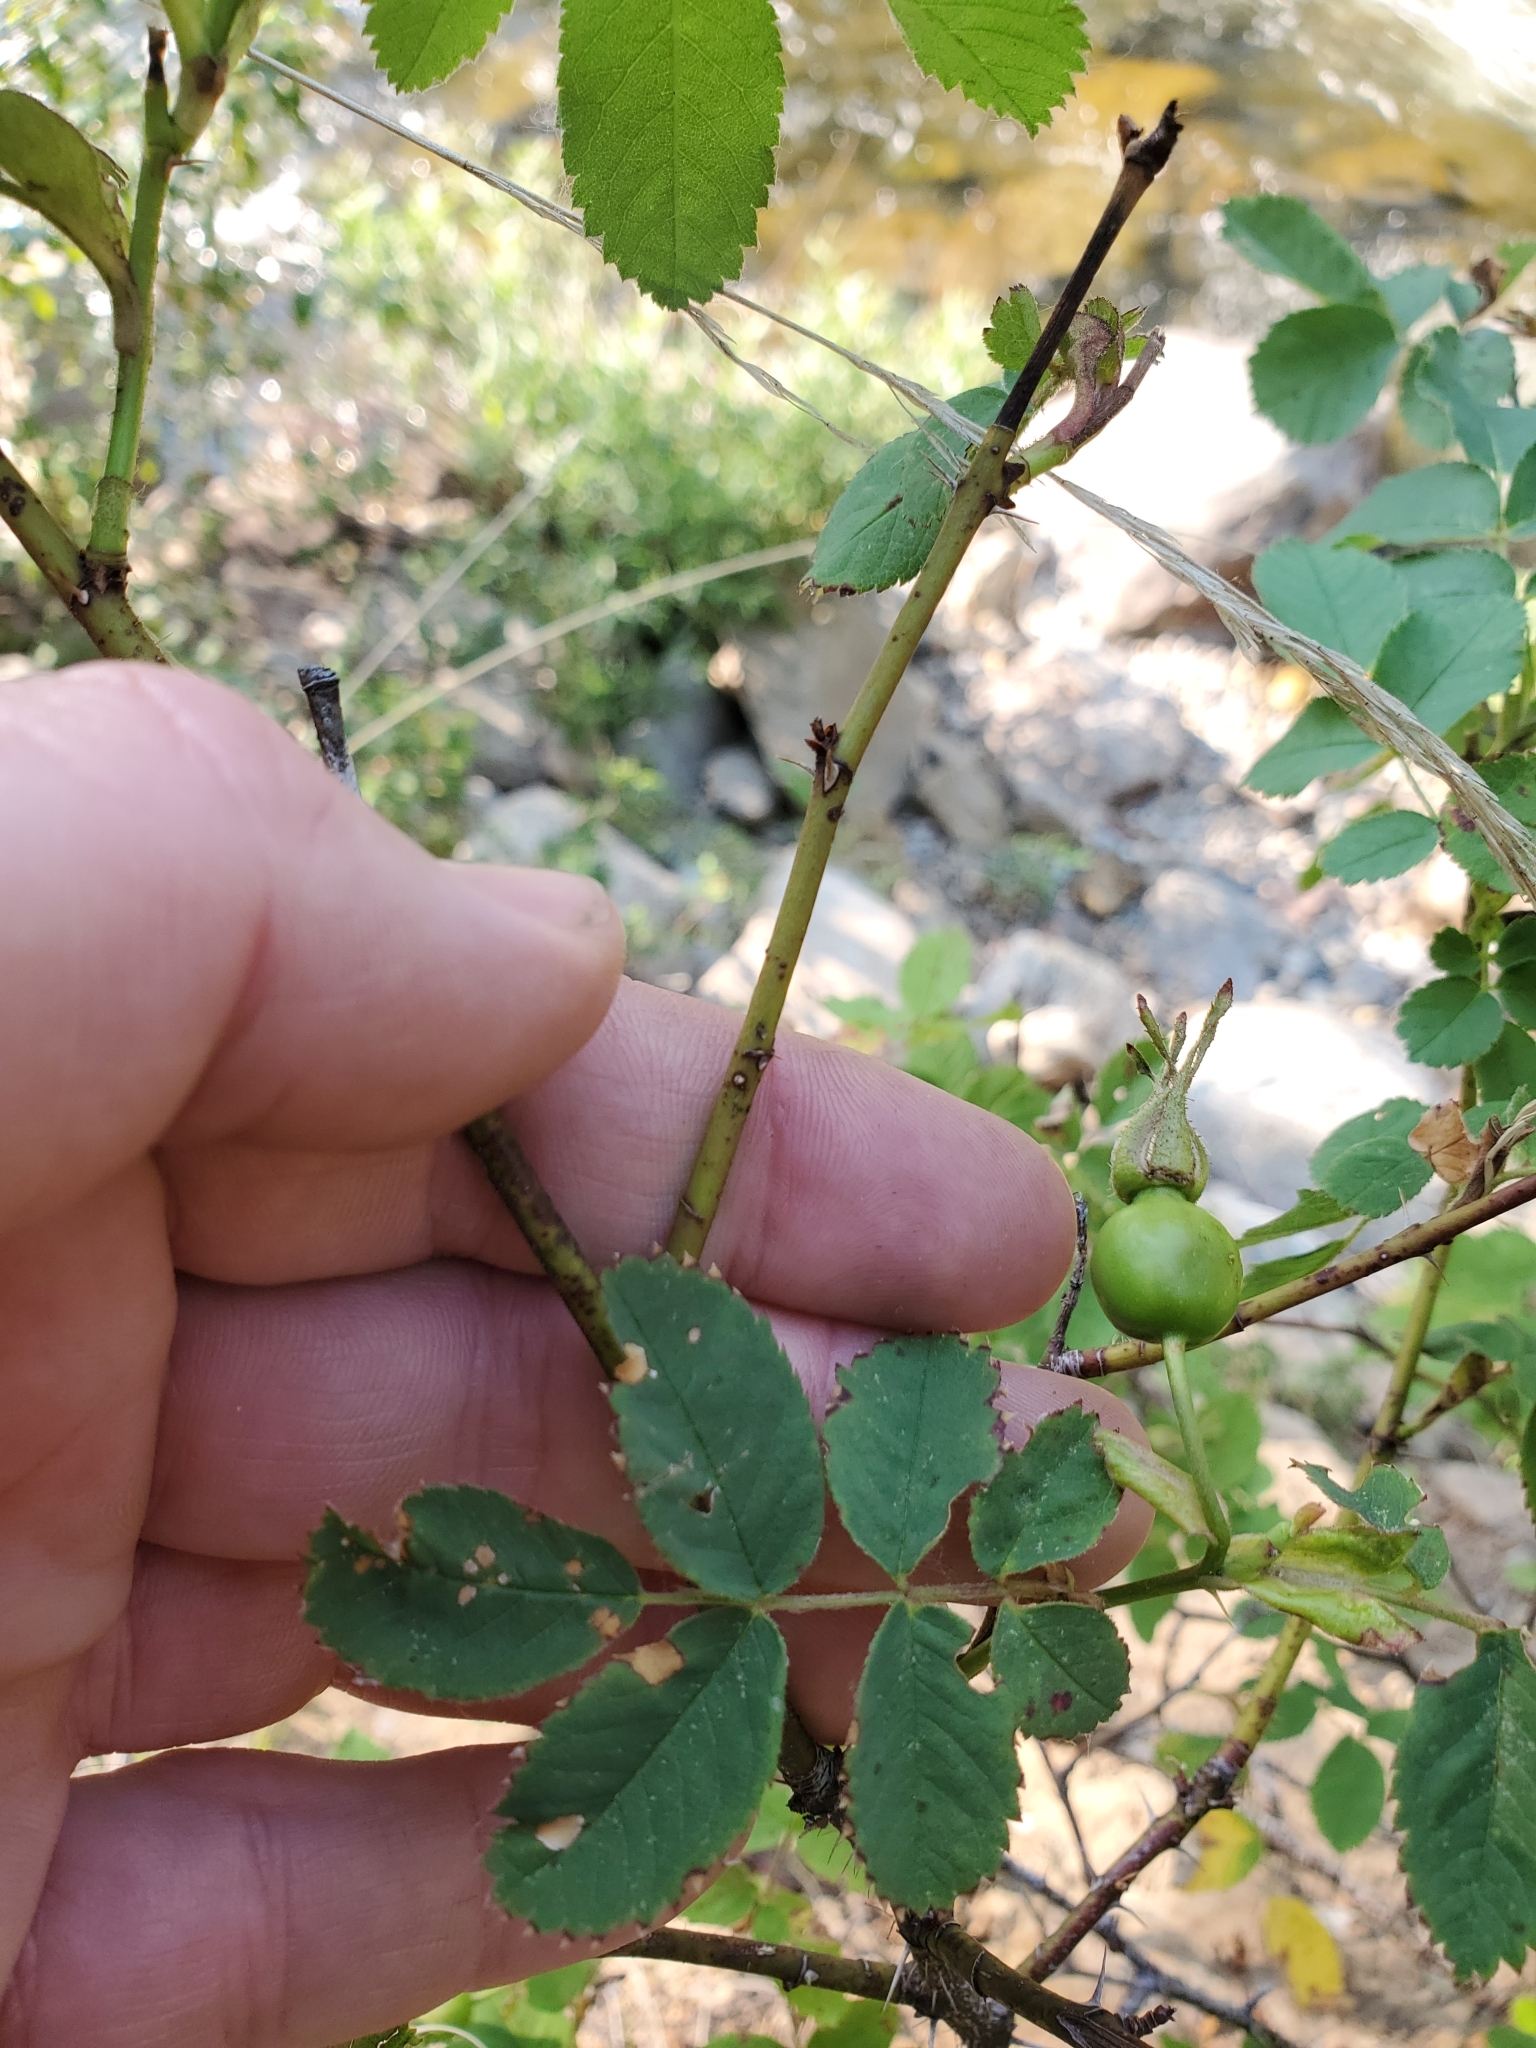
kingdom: Plantae
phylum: Tracheophyta
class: Magnoliopsida
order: Rosales
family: Rosaceae
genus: Rosa
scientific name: Rosa acicularis
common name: Prickly rose
